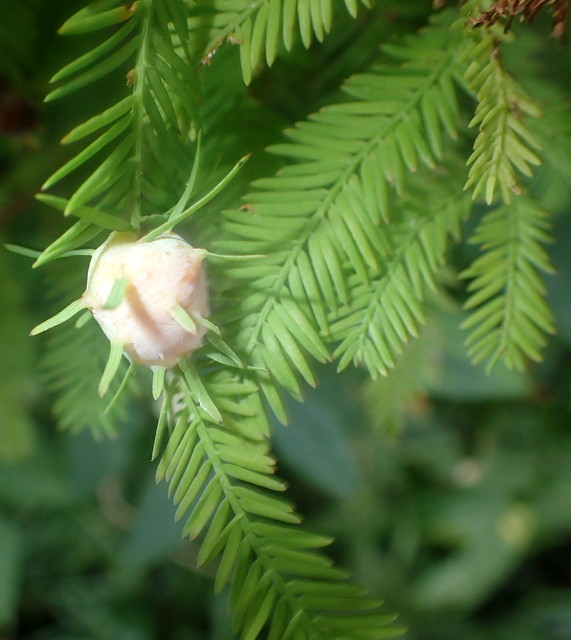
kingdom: Animalia
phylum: Arthropoda
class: Insecta
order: Diptera
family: Cecidomyiidae
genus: Taxodiomyia
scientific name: Taxodiomyia cupressiananassa
